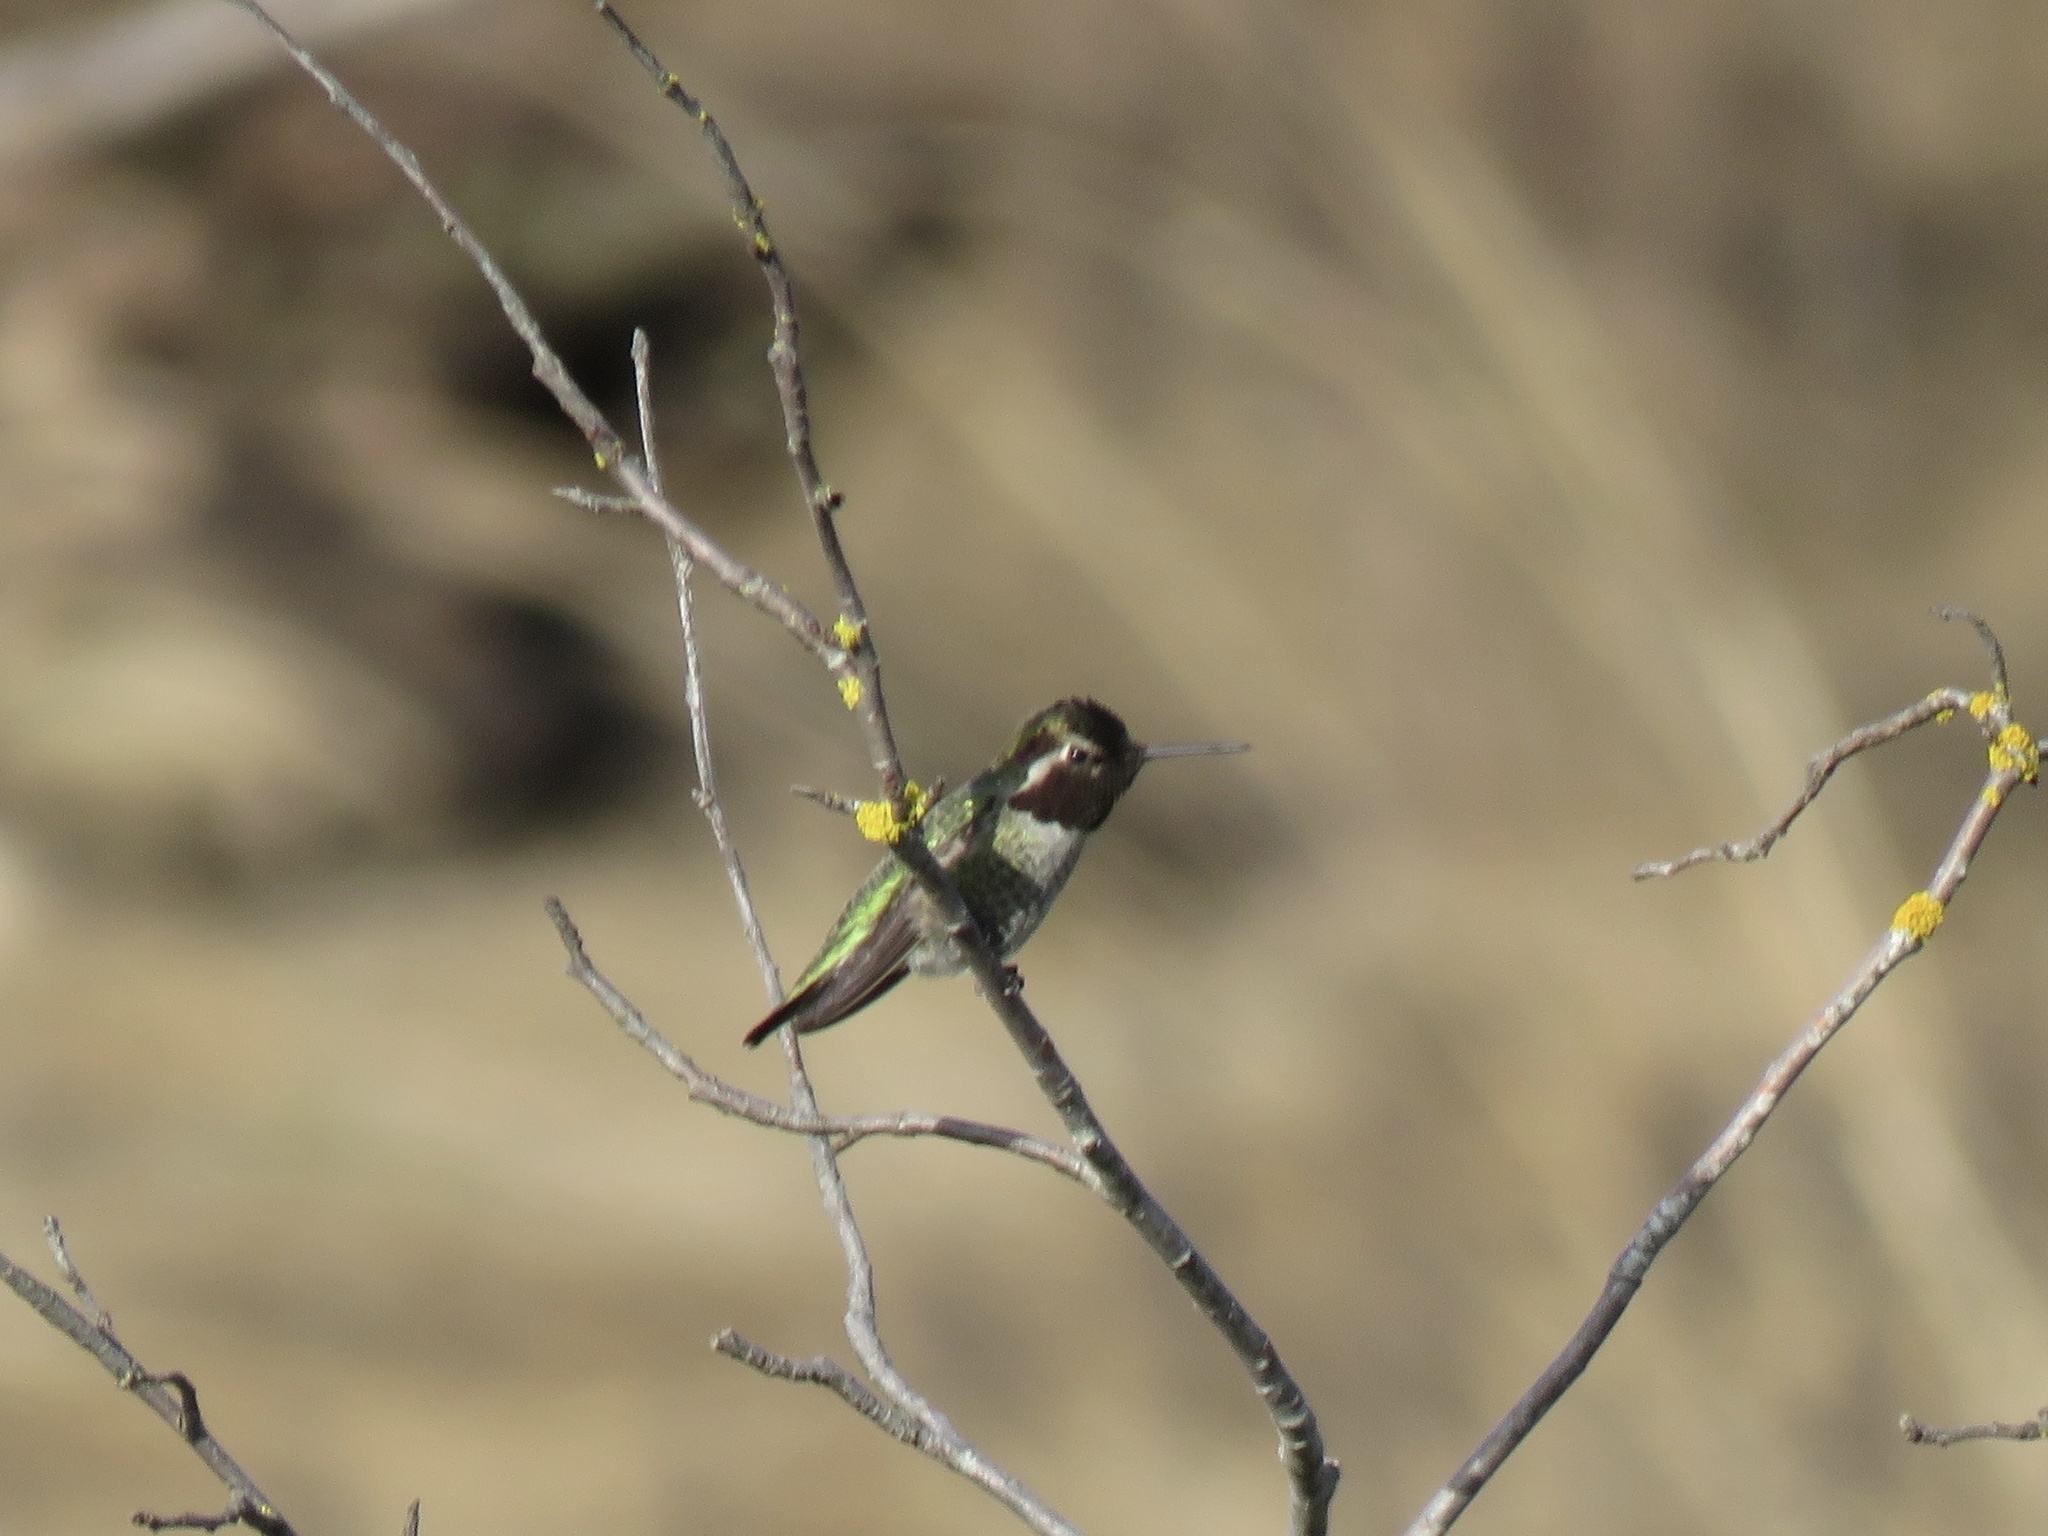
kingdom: Animalia
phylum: Chordata
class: Aves
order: Apodiformes
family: Trochilidae
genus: Calypte
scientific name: Calypte anna
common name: Anna's hummingbird
